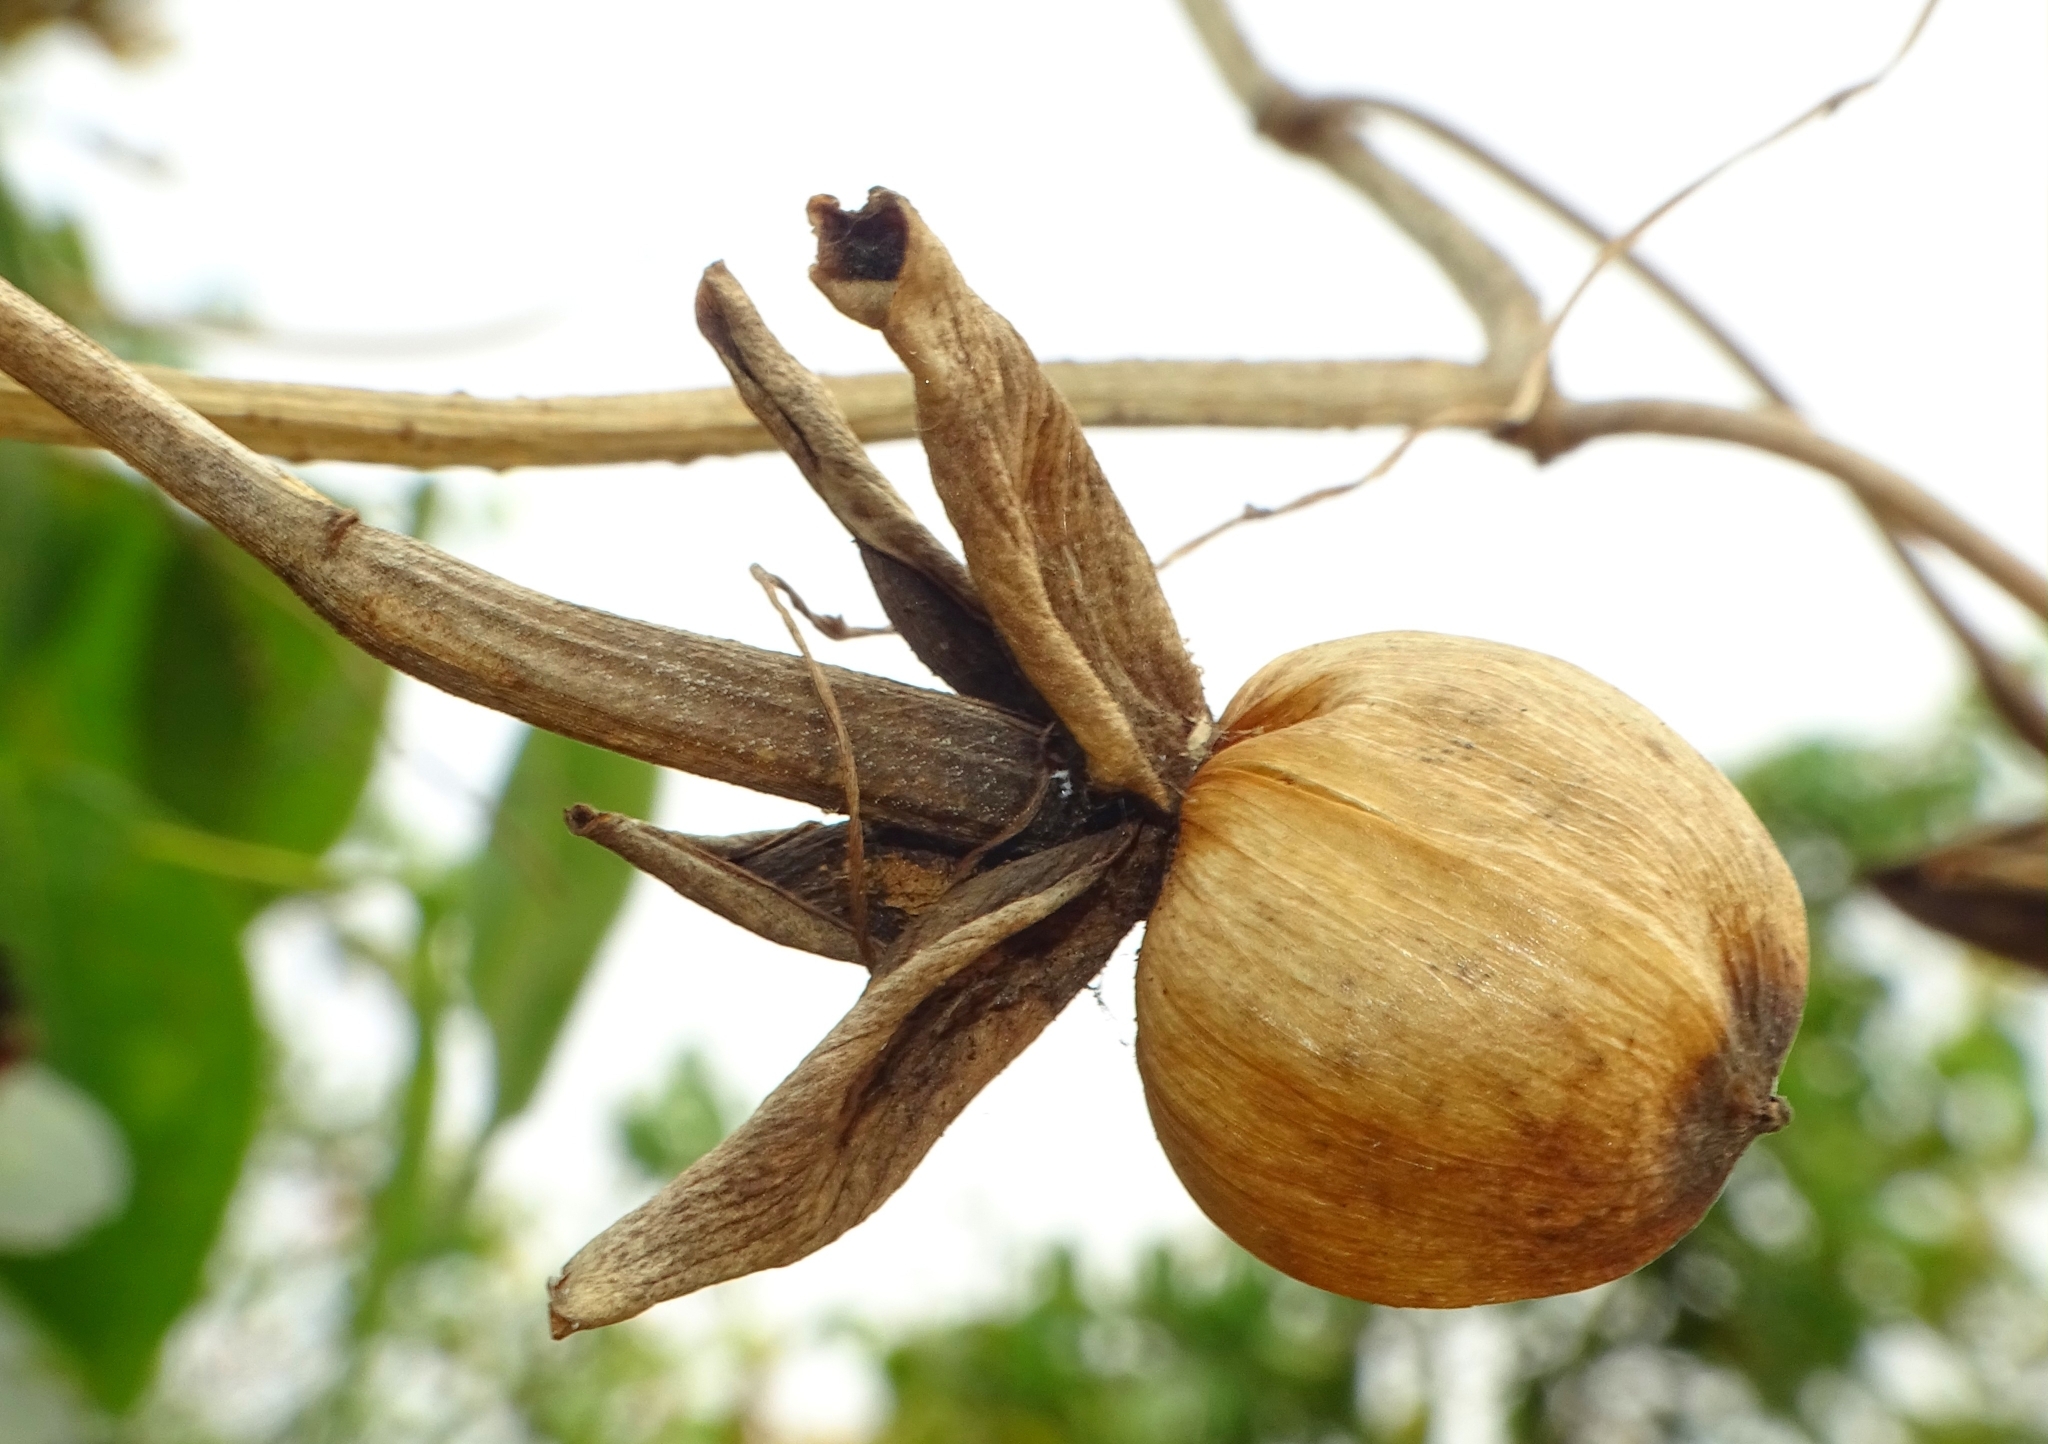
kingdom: Plantae
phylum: Tracheophyta
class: Magnoliopsida
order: Solanales
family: Convolvulaceae
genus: Ipomoea
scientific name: Ipomoea violacea
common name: Beach moonflower
